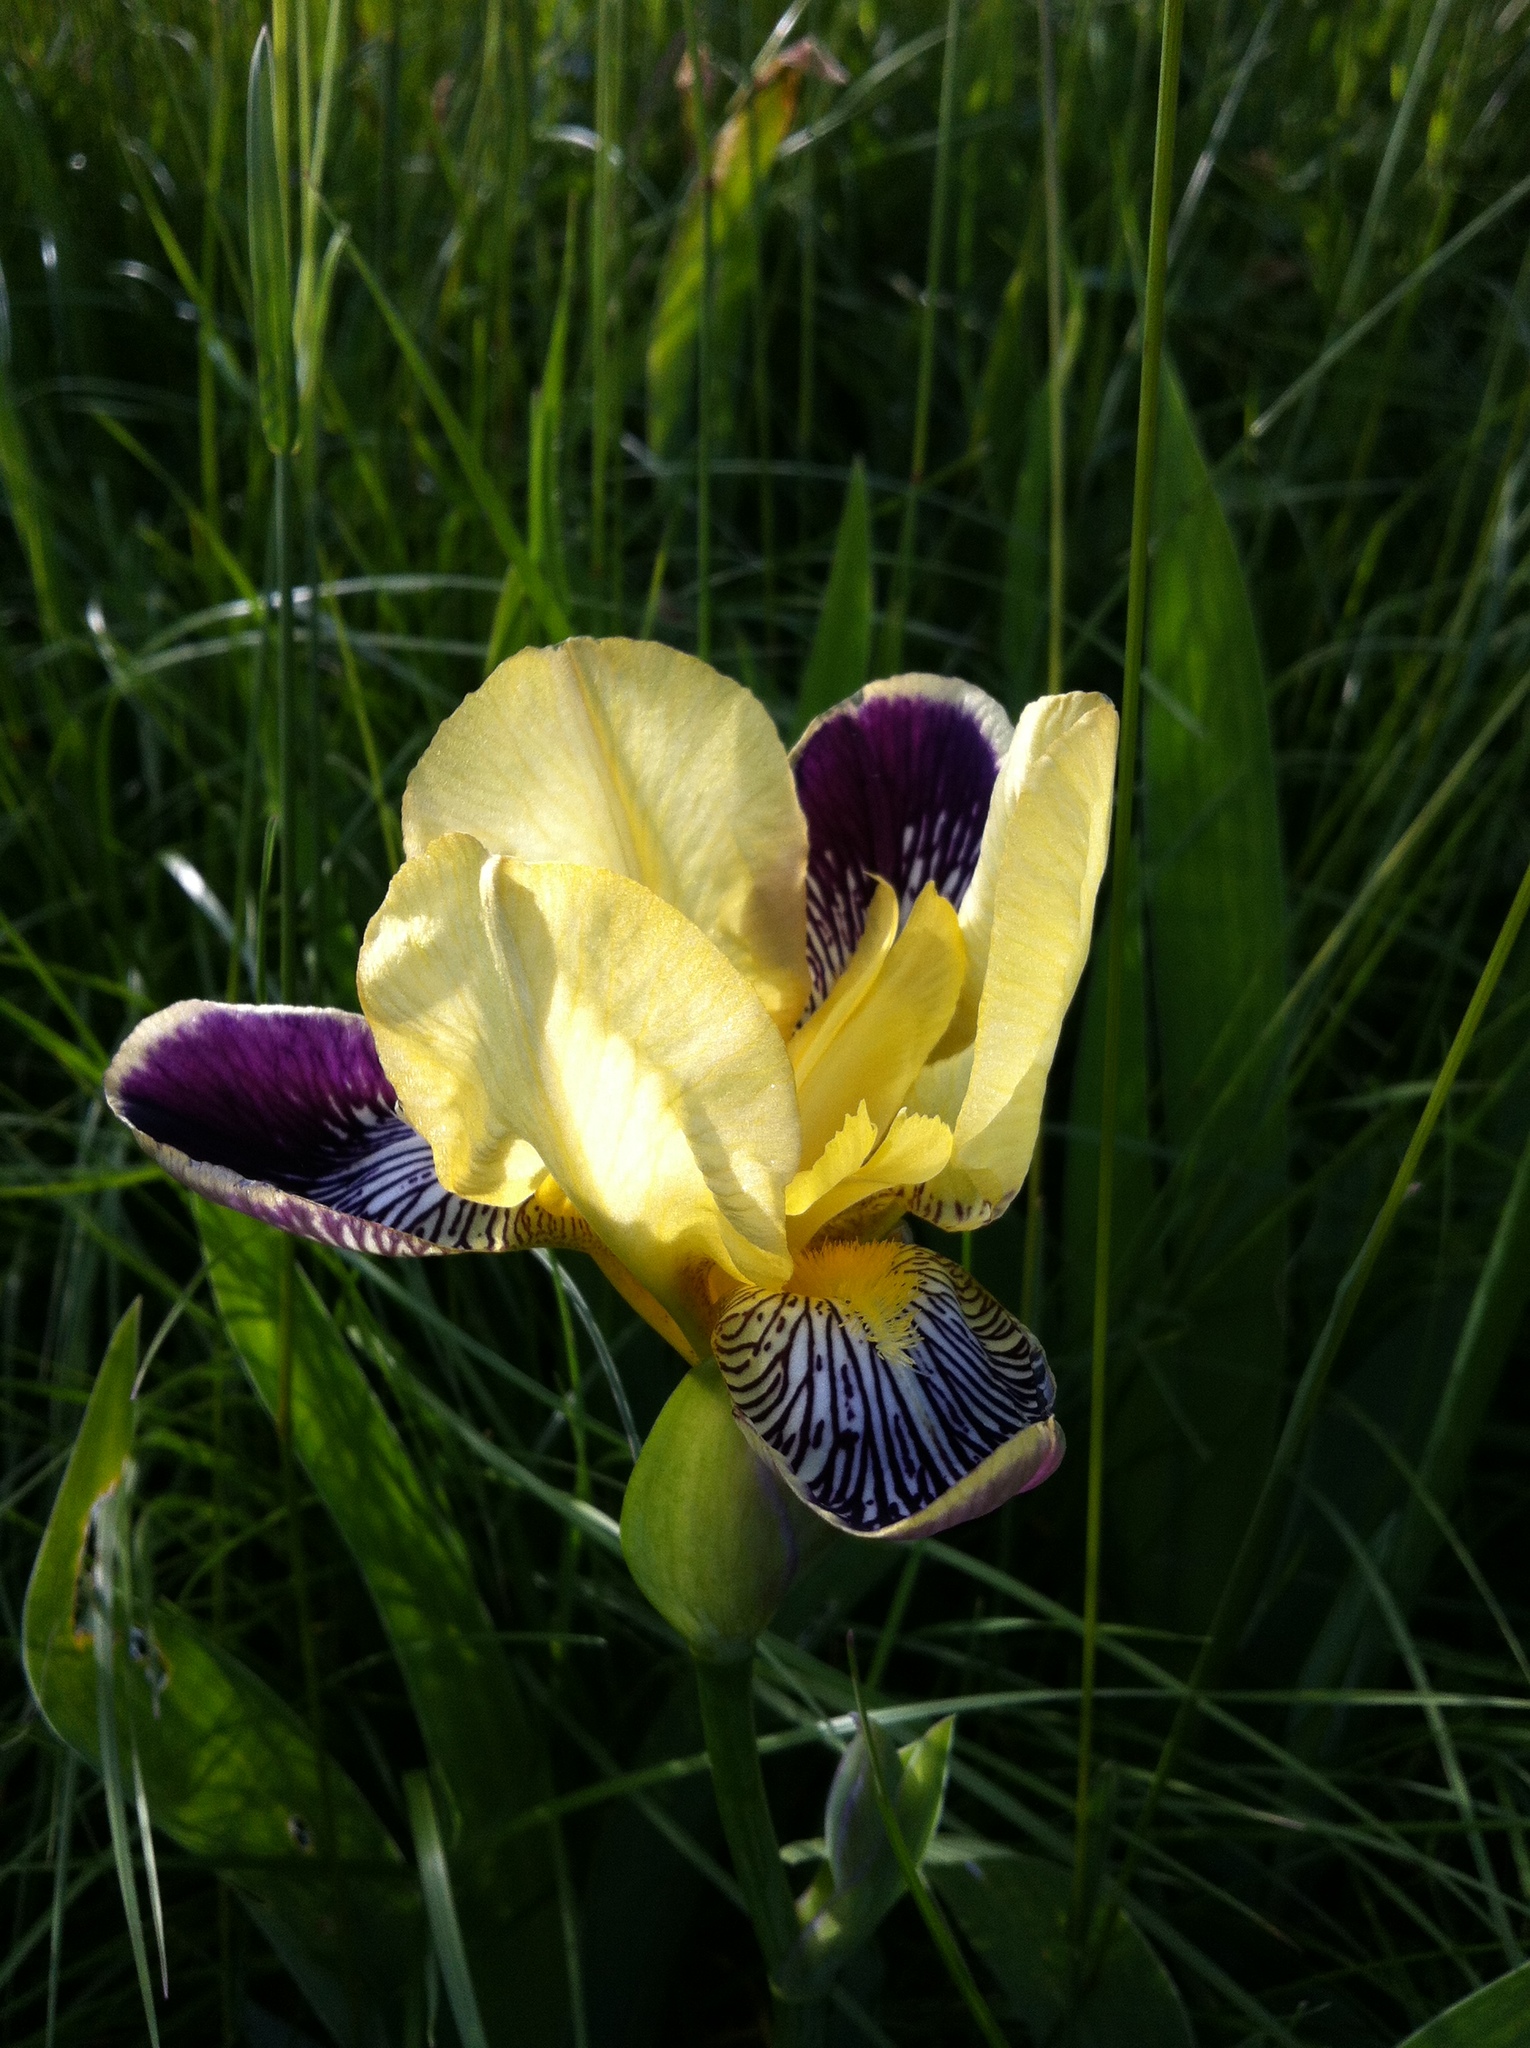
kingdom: Plantae
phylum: Tracheophyta
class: Liliopsida
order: Asparagales
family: Iridaceae
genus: Iris
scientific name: Iris hybrida
